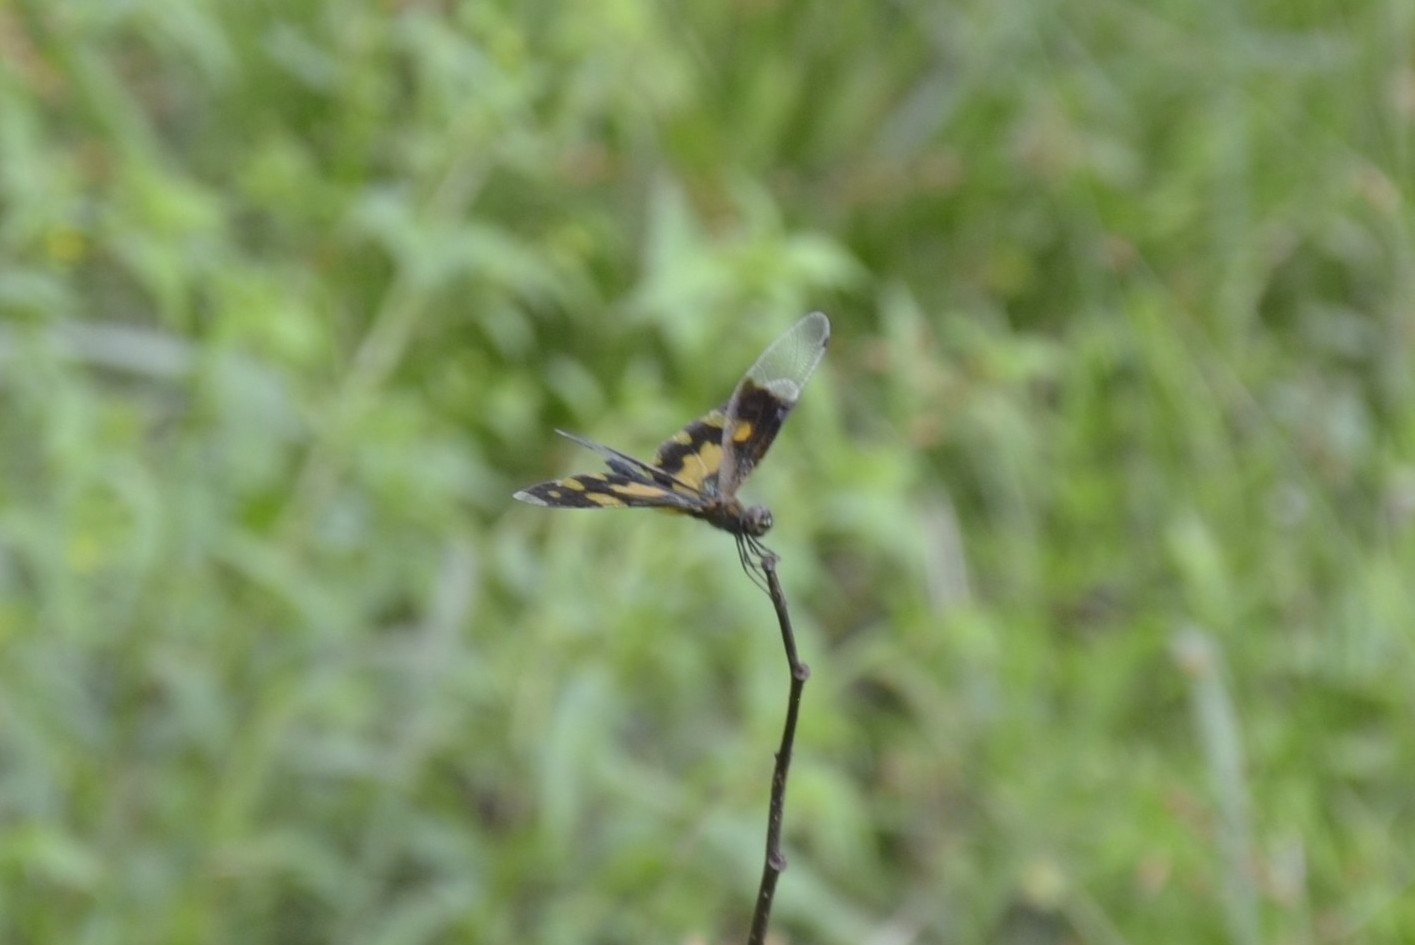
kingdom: Animalia
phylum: Arthropoda
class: Insecta
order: Odonata
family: Libellulidae
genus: Rhyothemis
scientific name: Rhyothemis variegata
